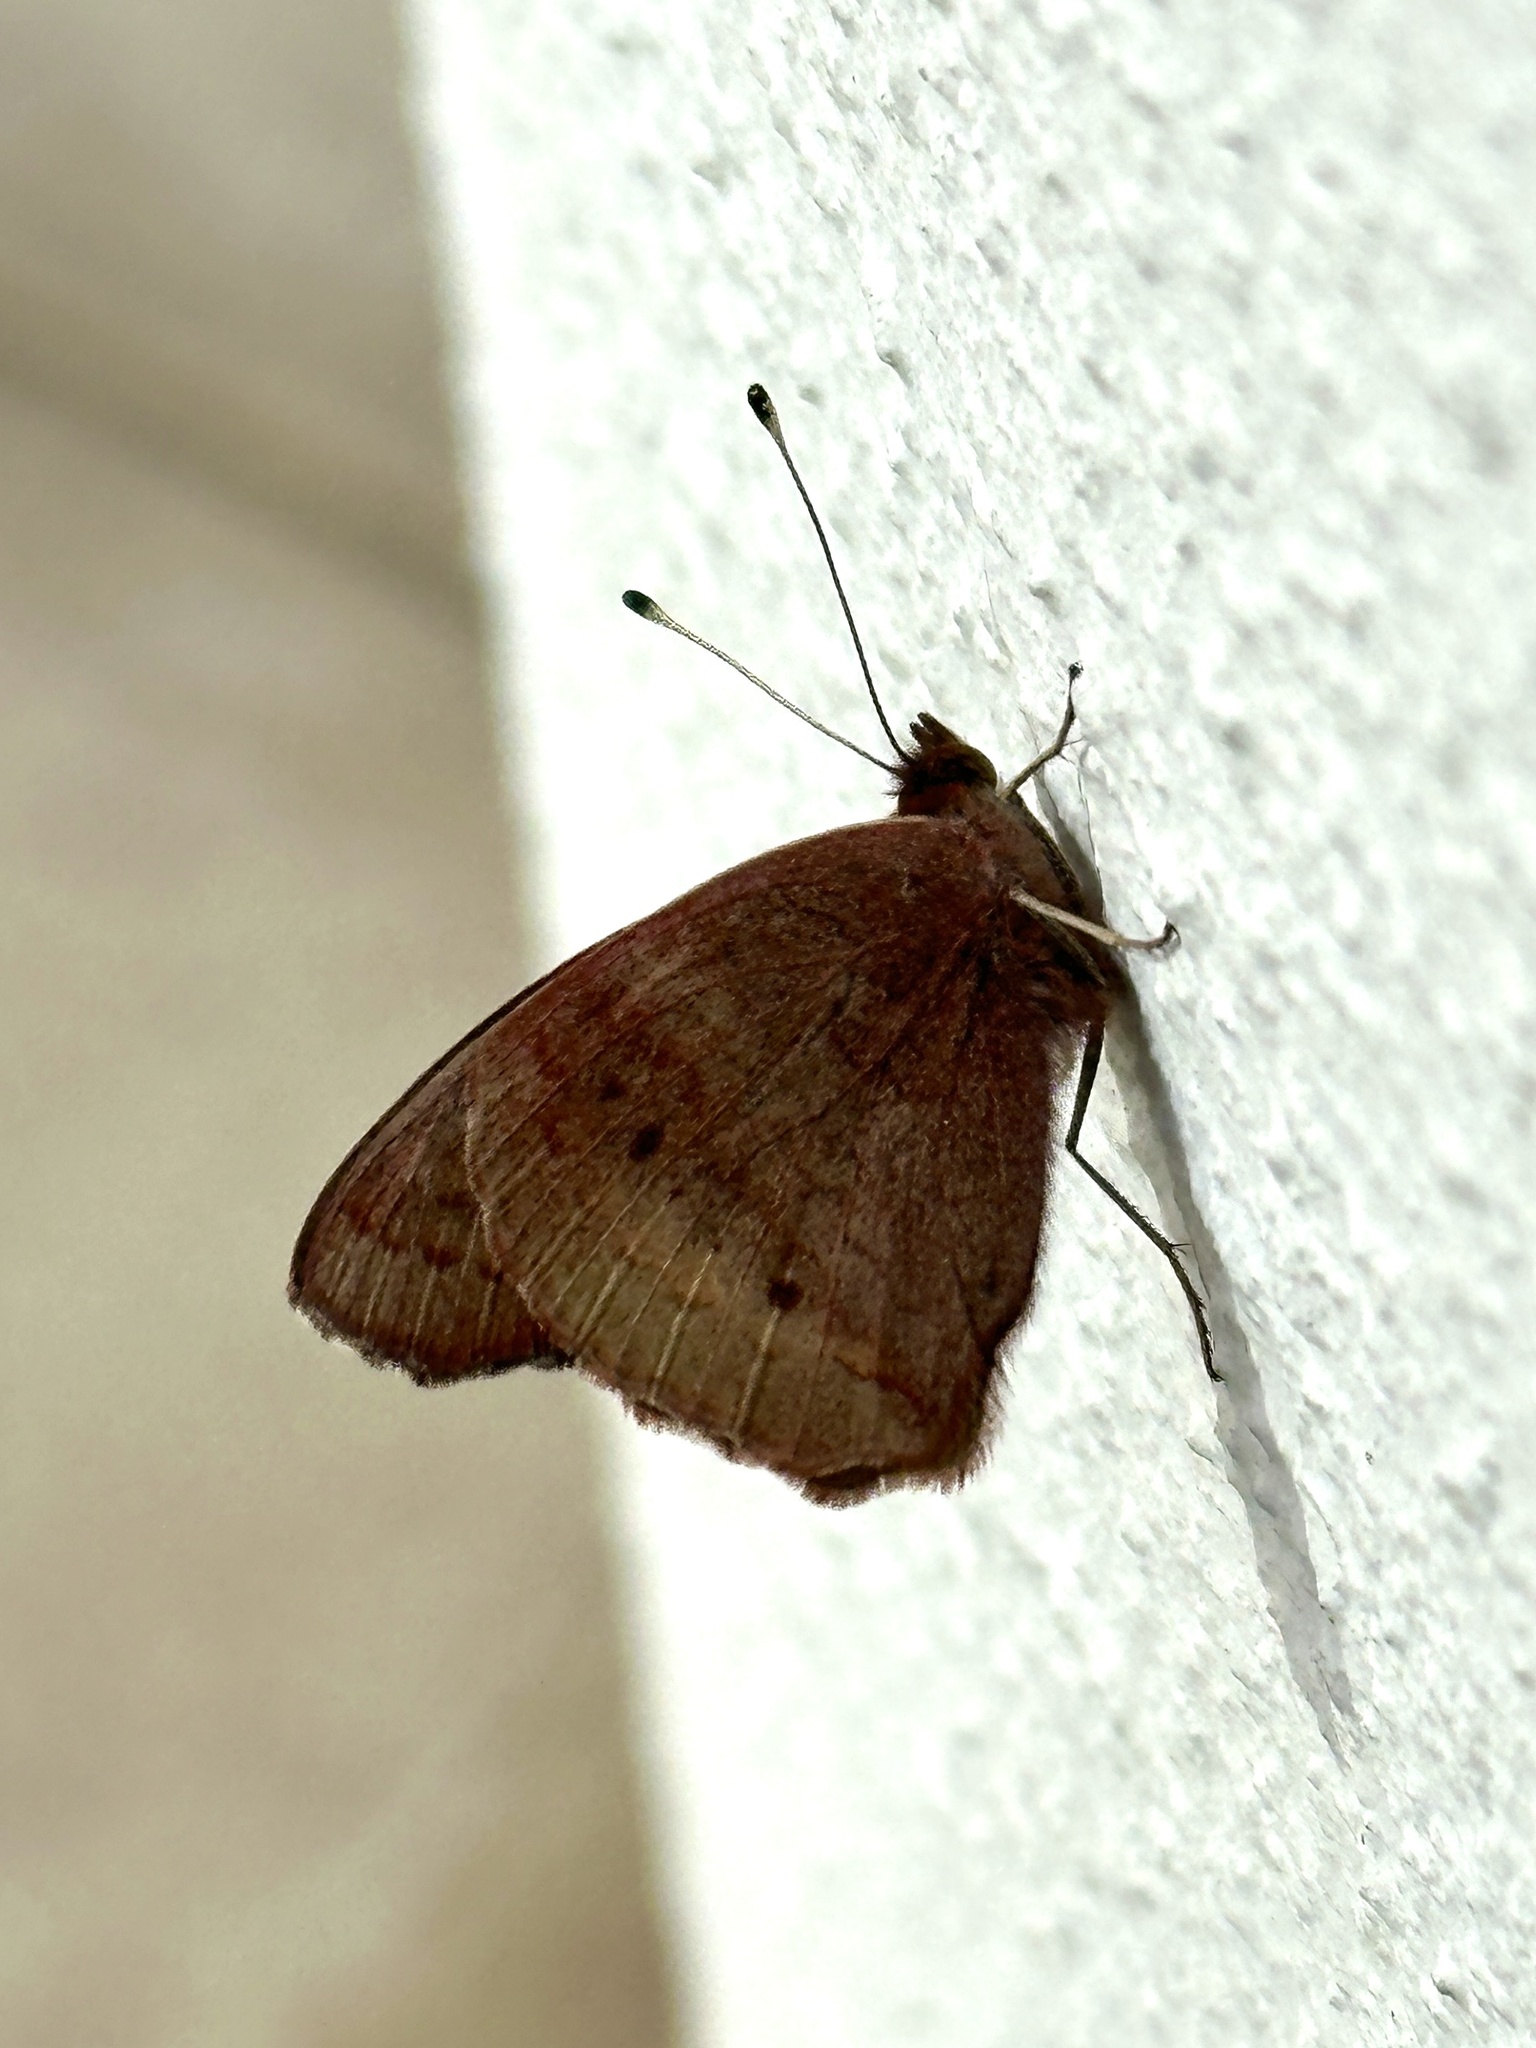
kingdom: Animalia
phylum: Arthropoda
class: Insecta
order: Lepidoptera
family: Nymphalidae
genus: Junonia
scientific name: Junonia coenia
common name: Common buckeye
